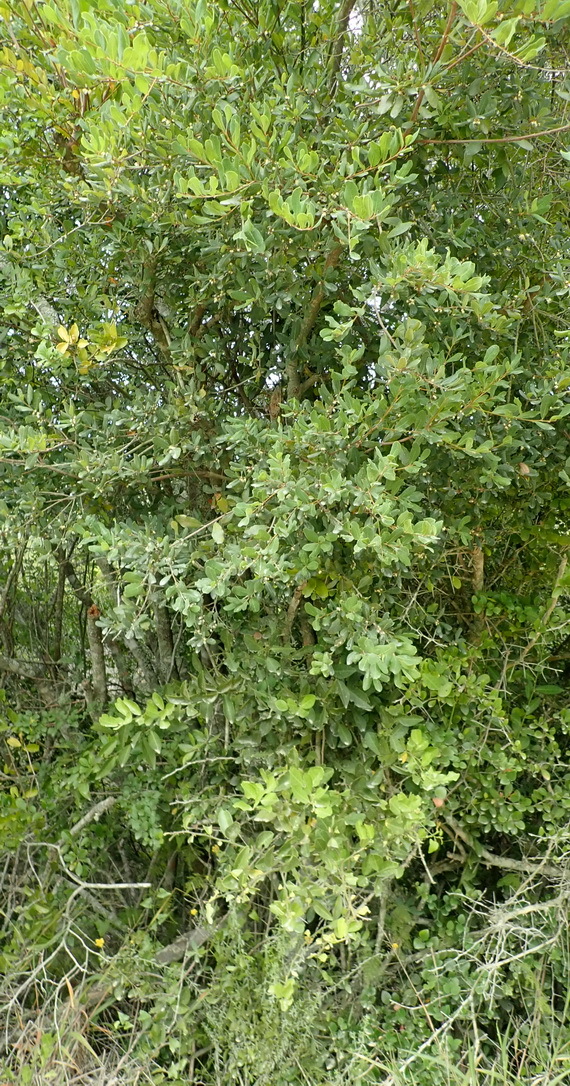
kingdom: Plantae
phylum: Tracheophyta
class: Magnoliopsida
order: Malpighiales
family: Phyllanthaceae
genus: Lachnostylis
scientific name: Lachnostylis hirta
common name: Coalwood
